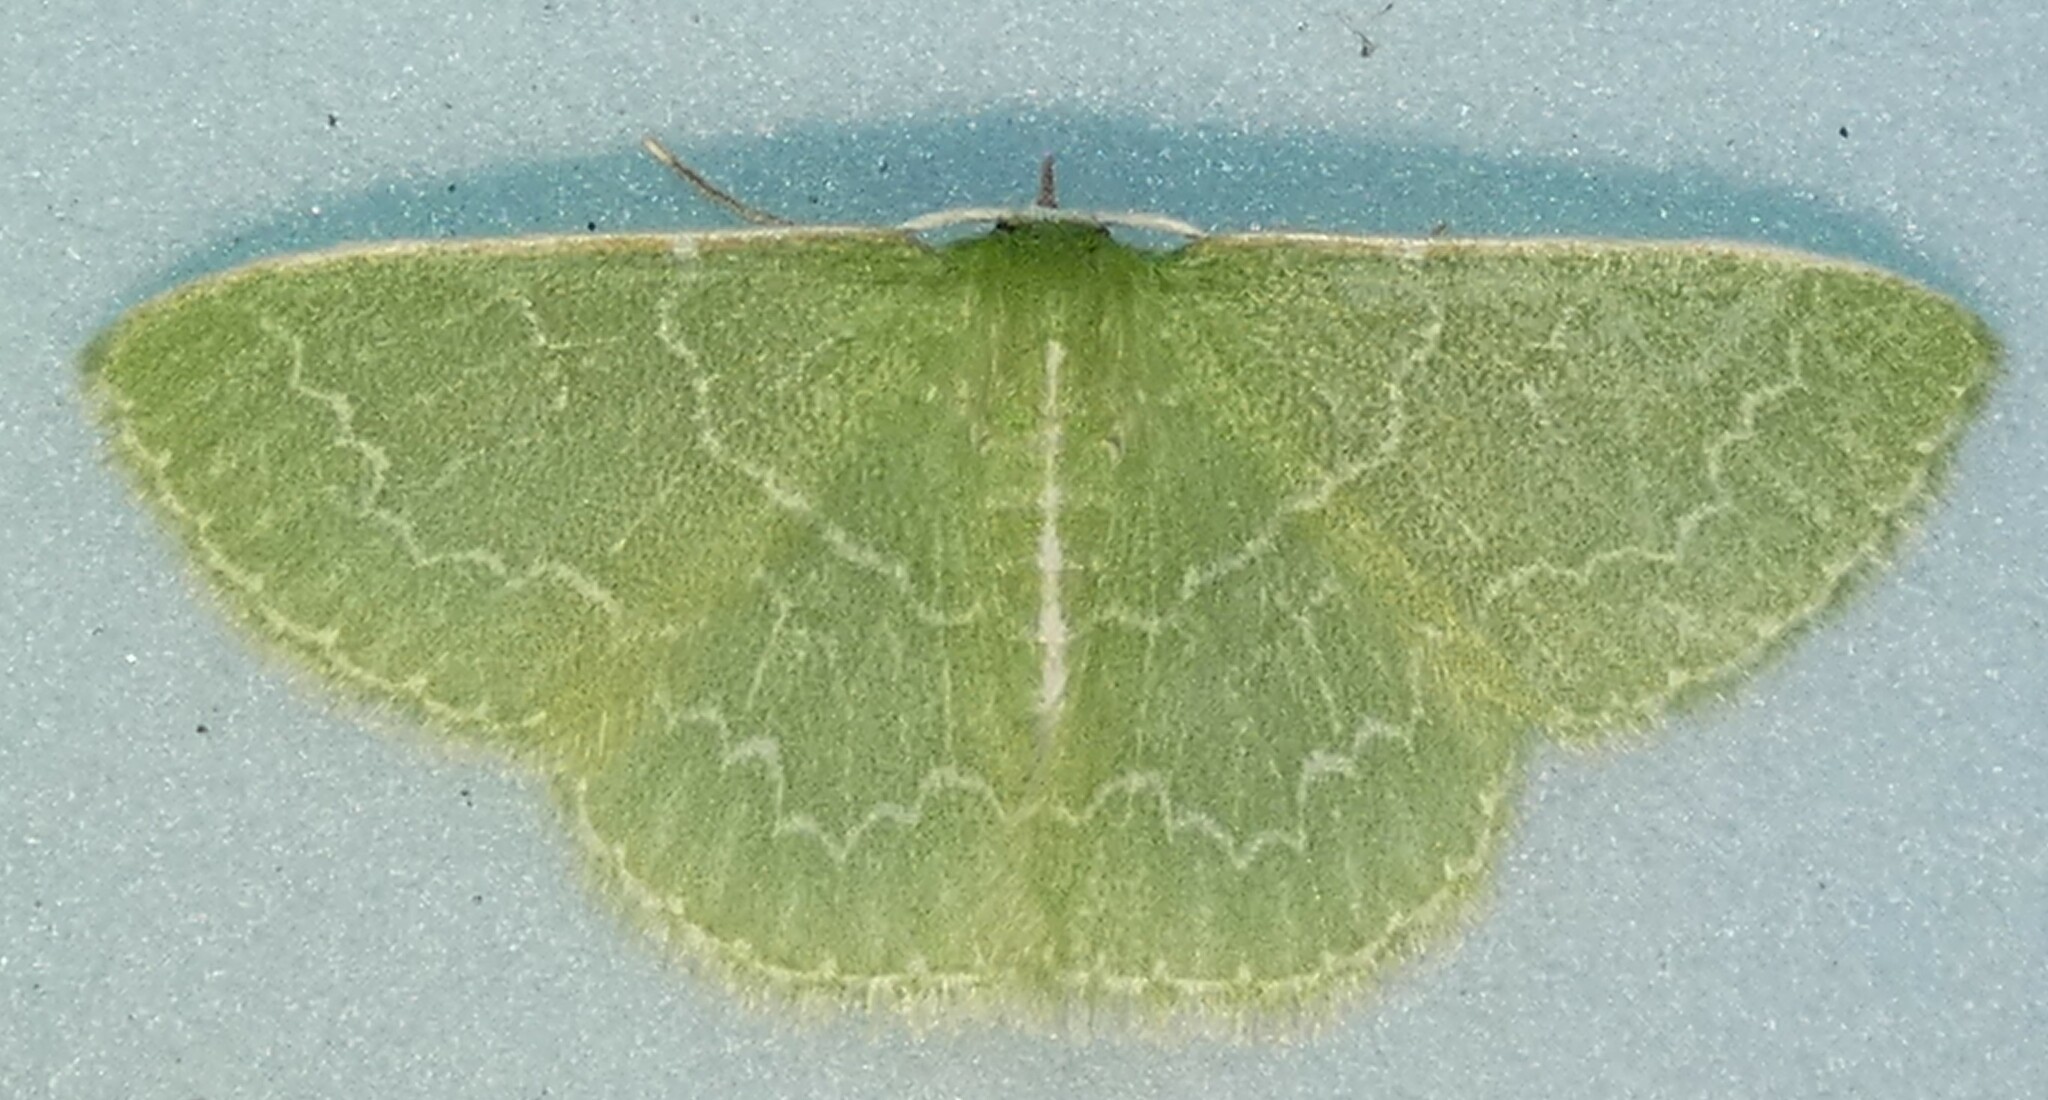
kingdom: Animalia
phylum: Arthropoda
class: Insecta
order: Lepidoptera
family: Geometridae
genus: Synchlora
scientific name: Synchlora frondaria
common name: Southern emerald
